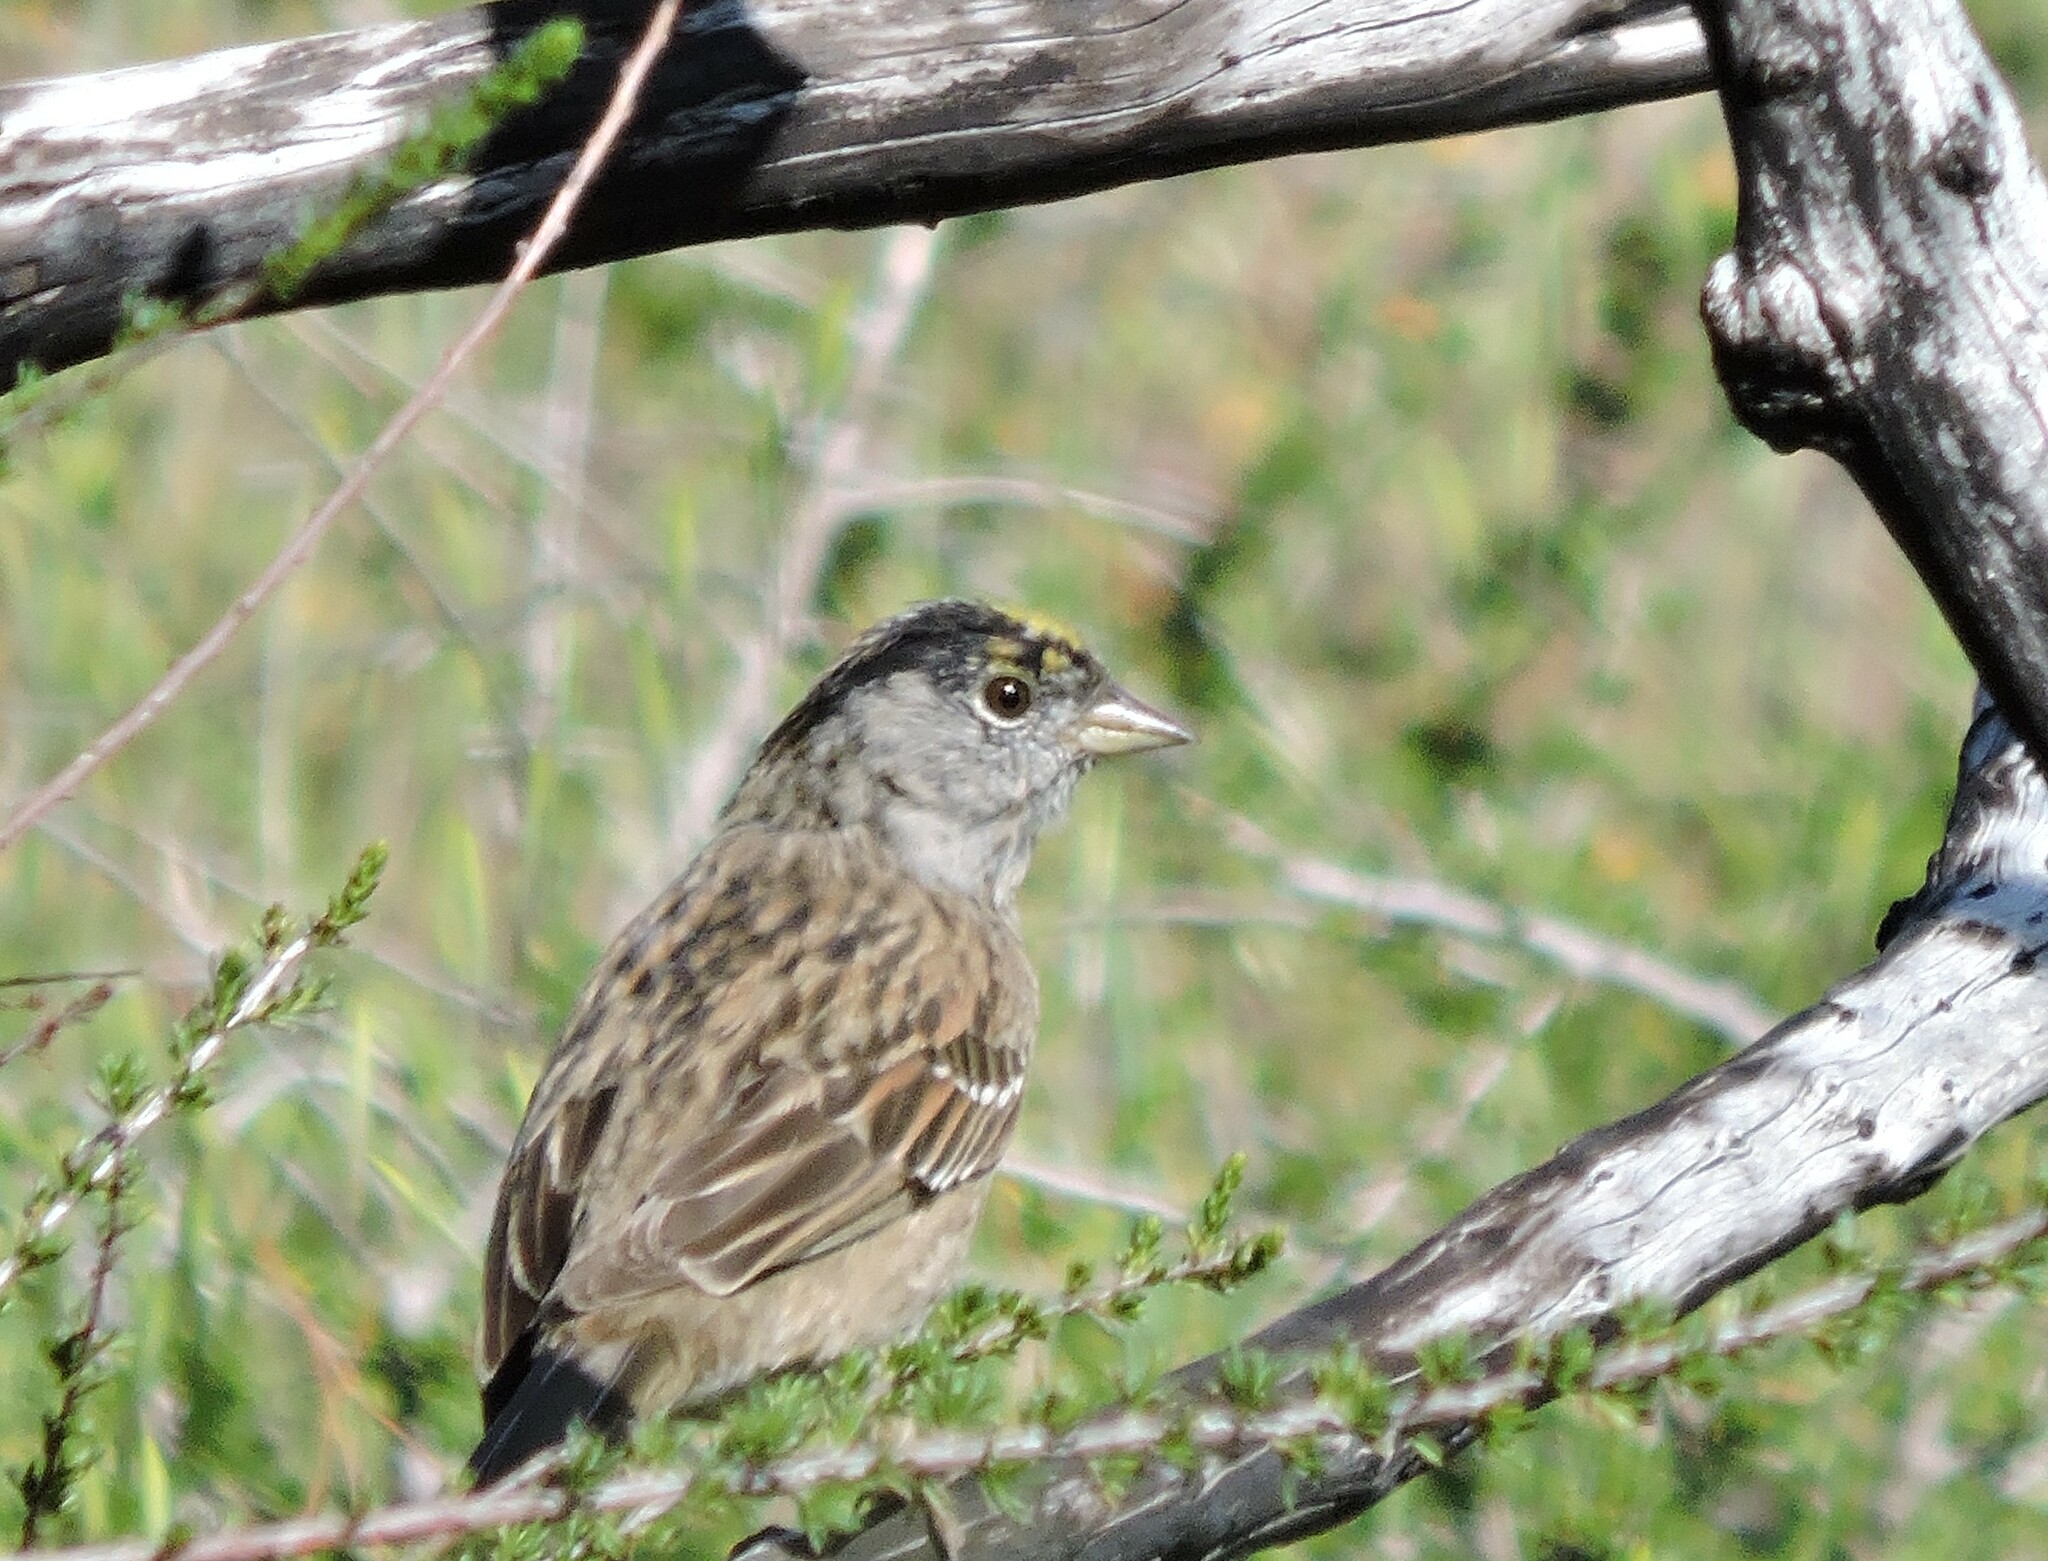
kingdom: Animalia
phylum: Chordata
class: Aves
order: Passeriformes
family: Passerellidae
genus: Zonotrichia
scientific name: Zonotrichia atricapilla
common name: Golden-crowned sparrow
